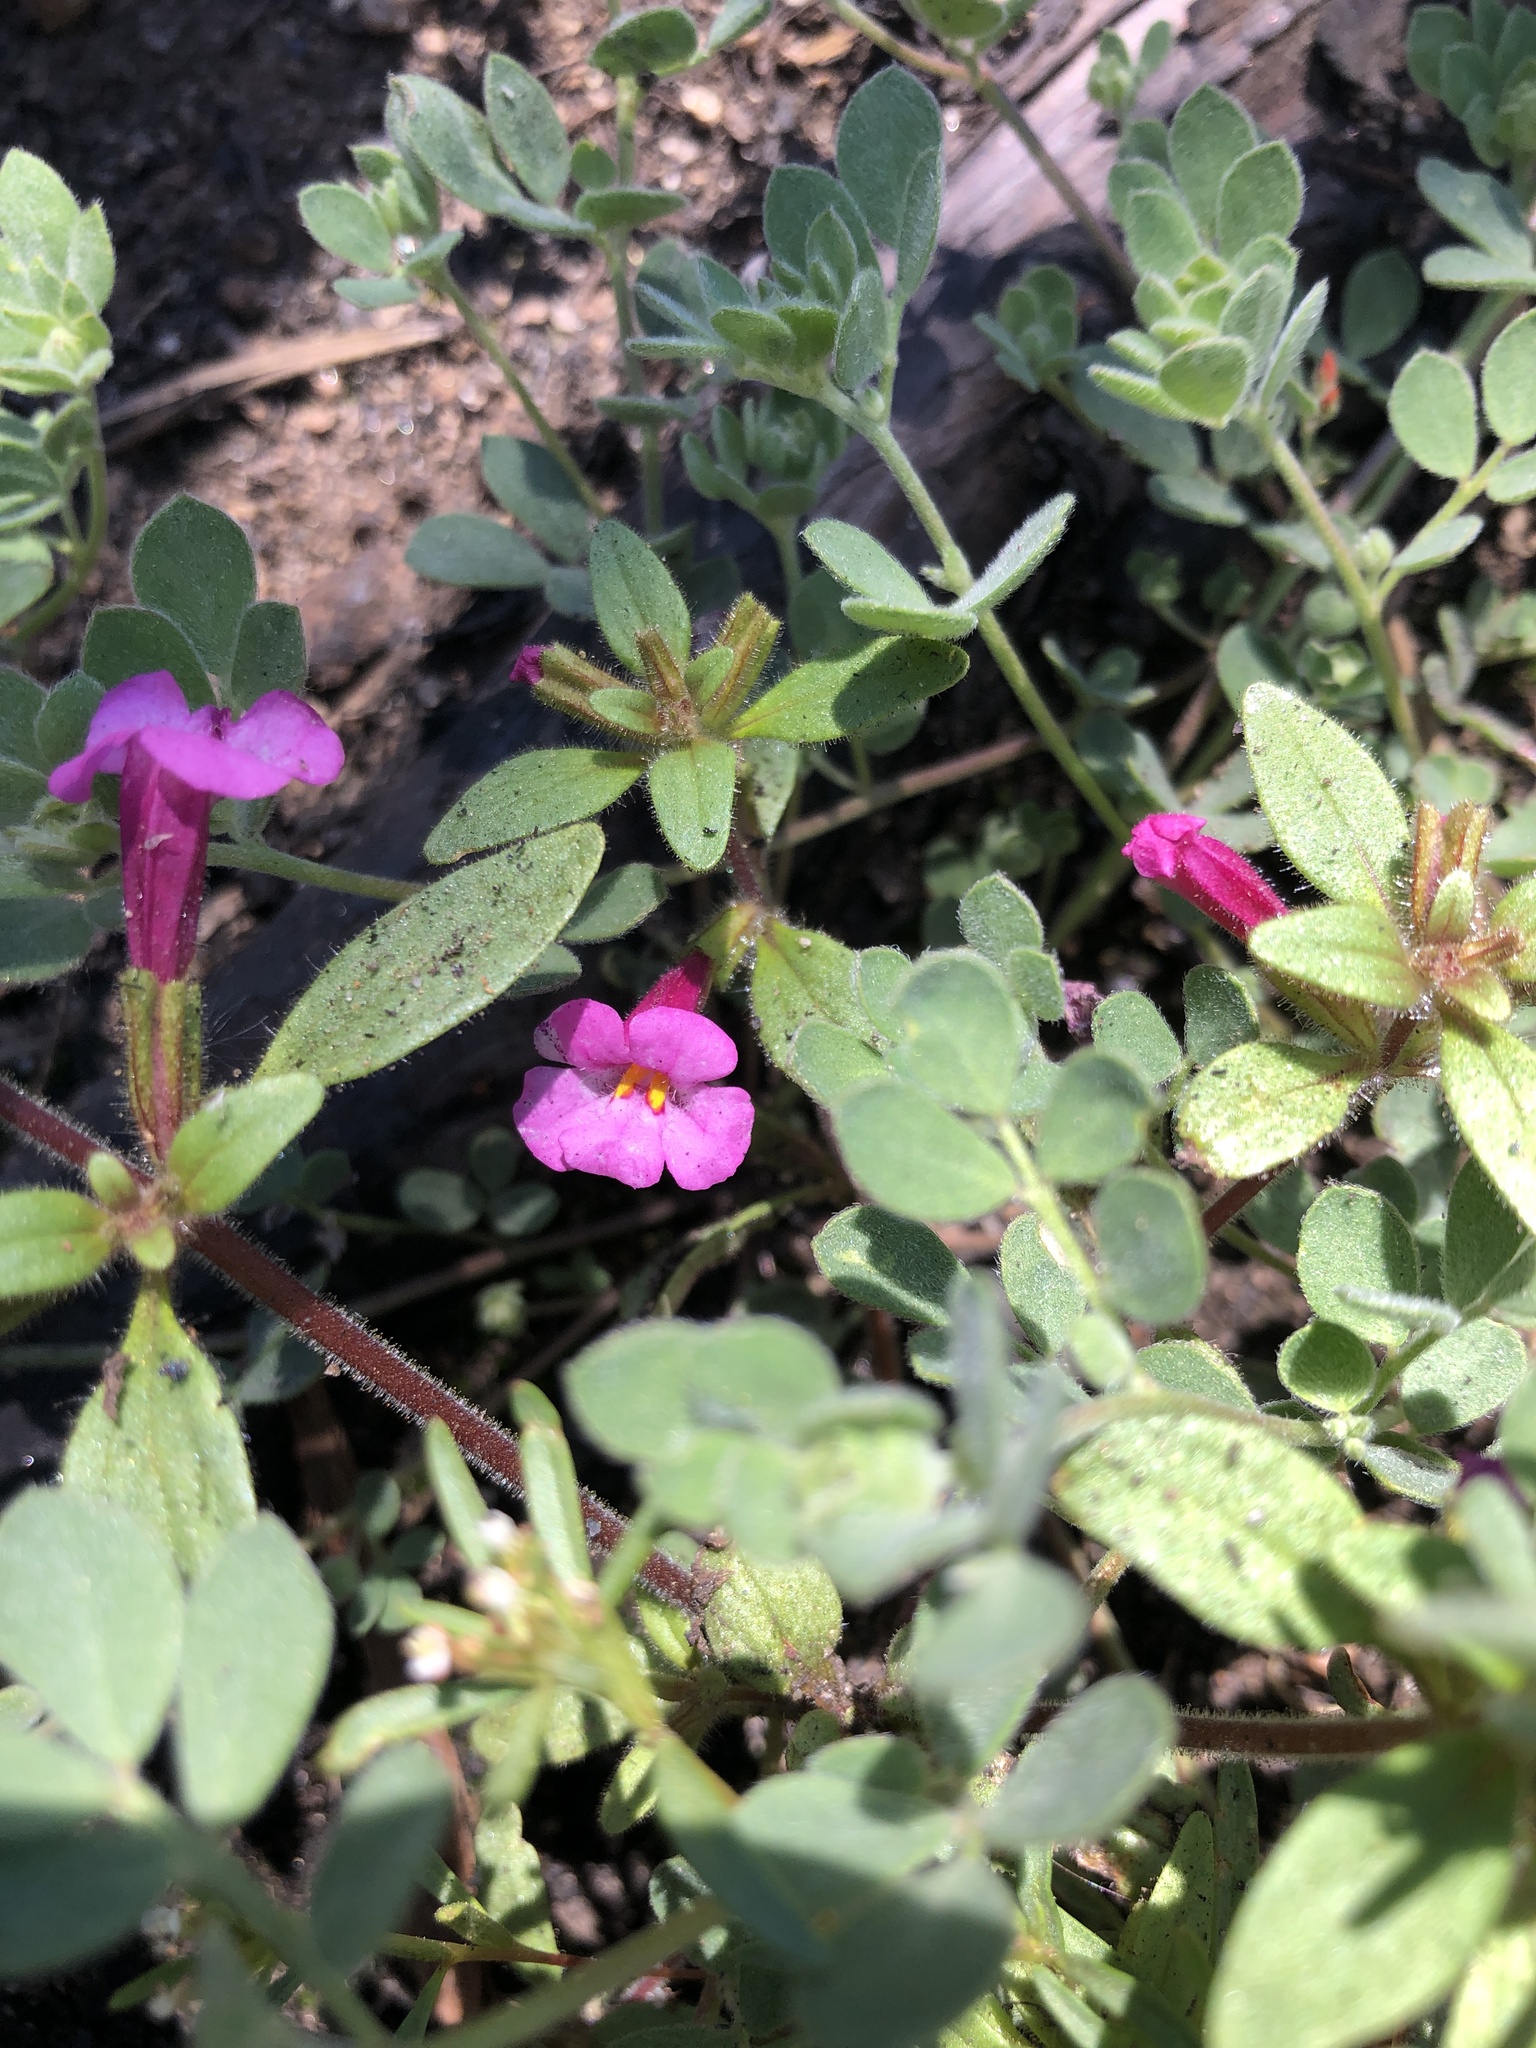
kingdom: Plantae
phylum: Tracheophyta
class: Magnoliopsida
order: Lamiales
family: Phrymaceae
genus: Diplacus
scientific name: Diplacus torreyi
